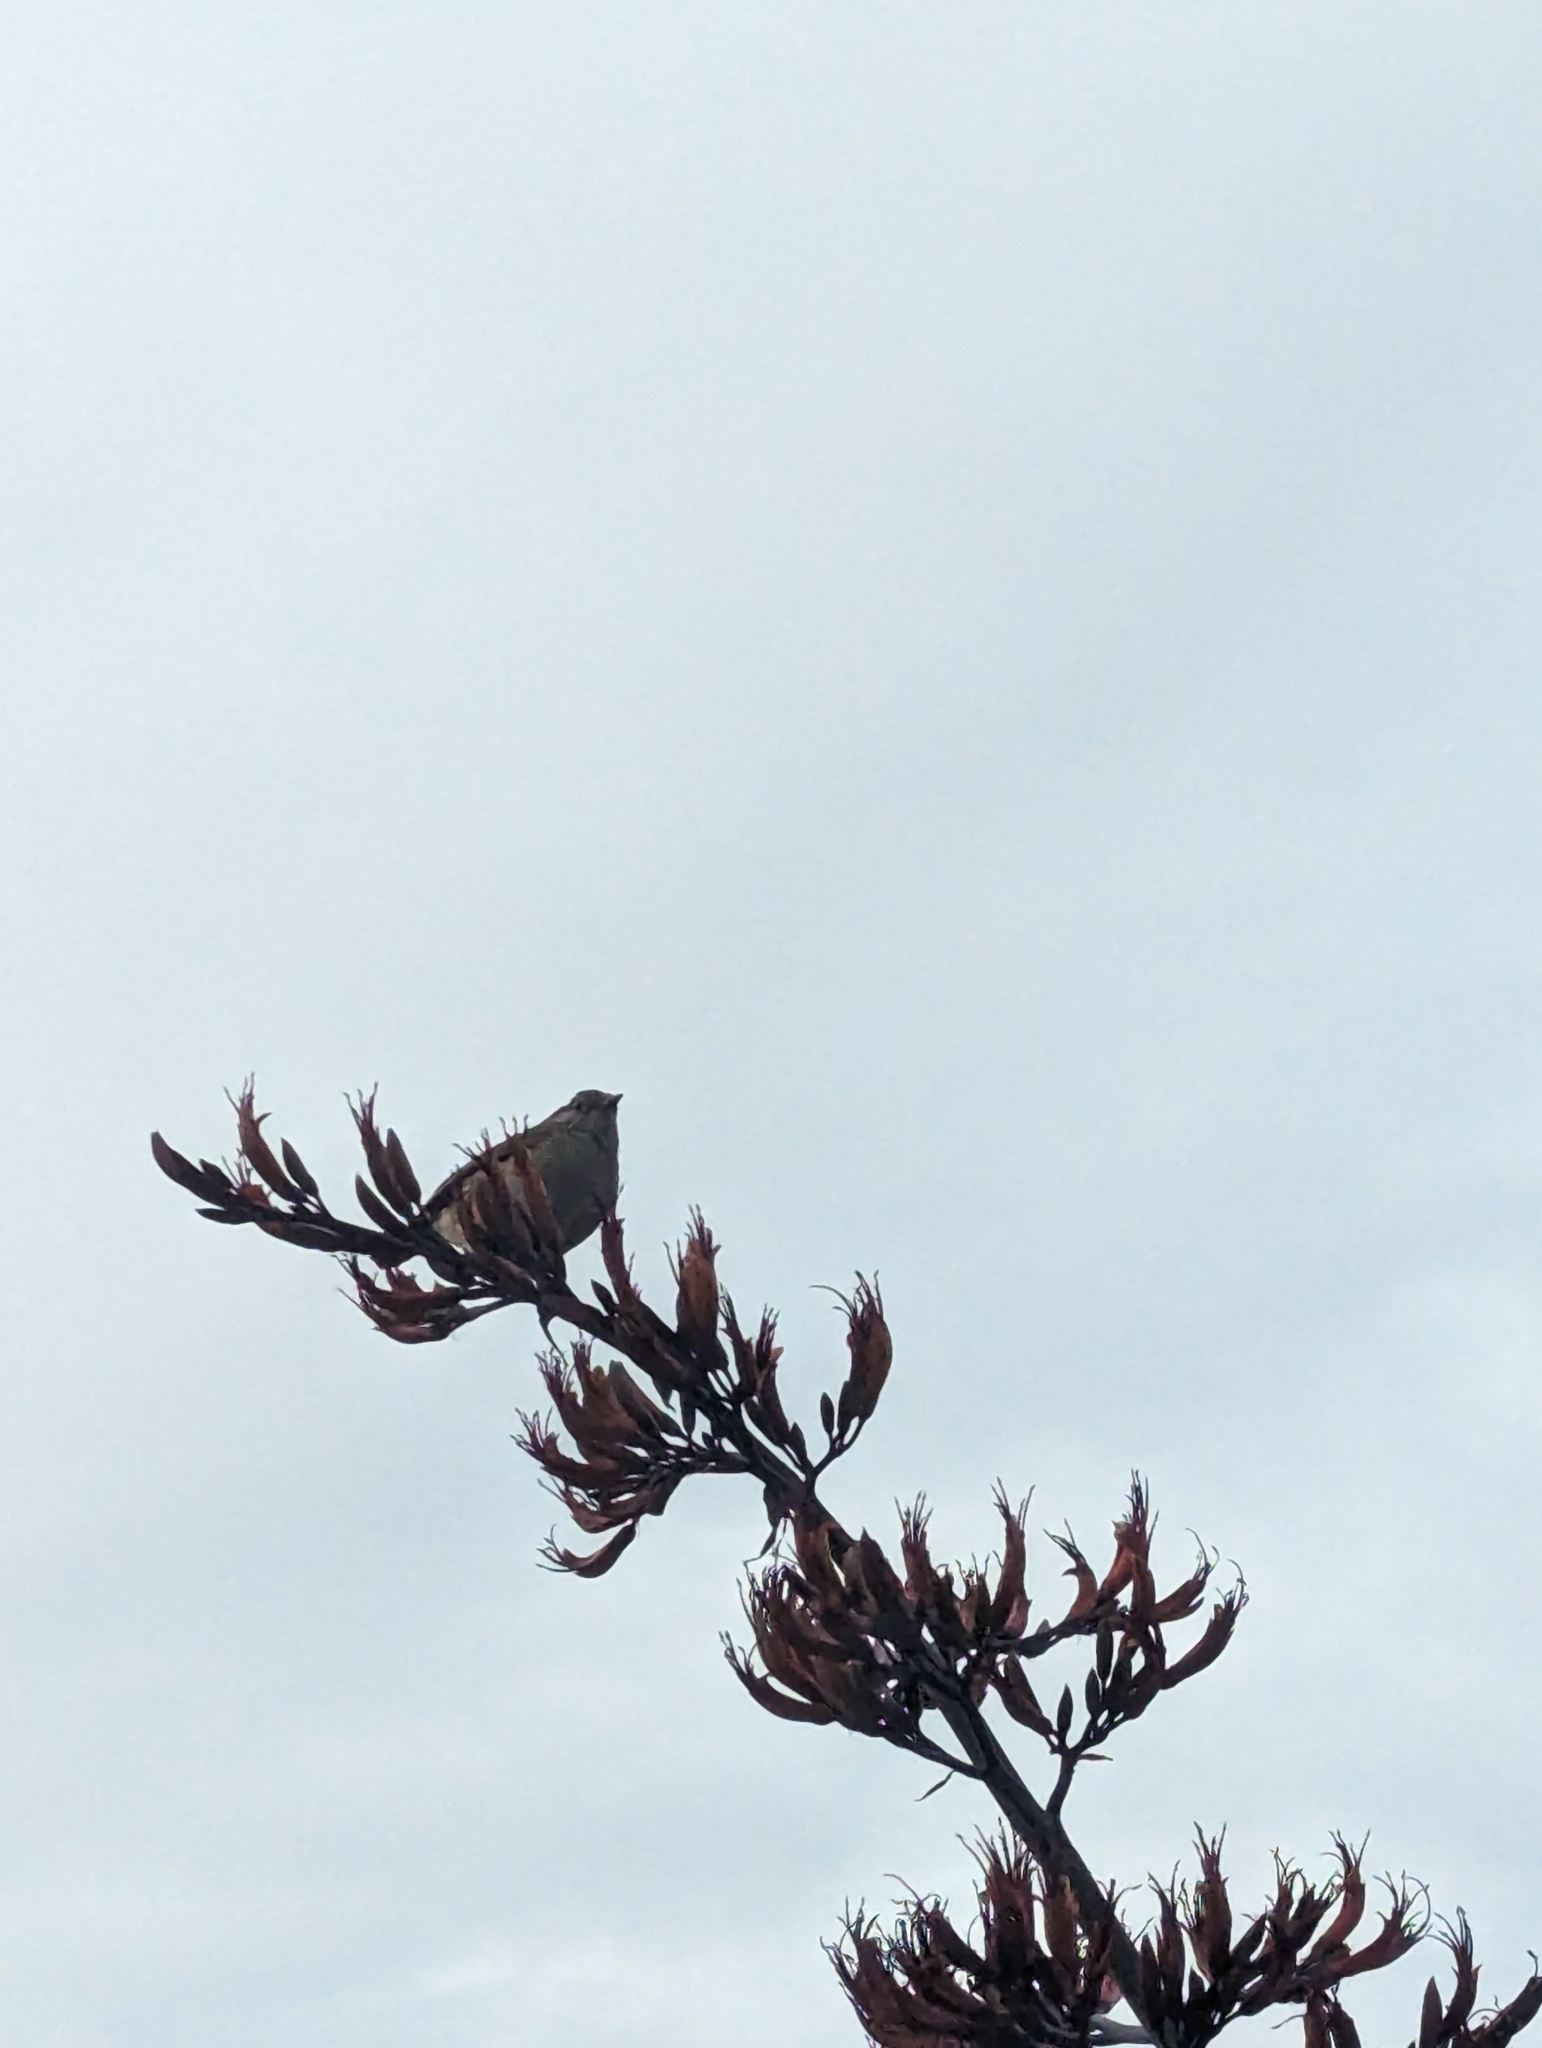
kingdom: Animalia
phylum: Chordata
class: Aves
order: Passeriformes
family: Prunellidae
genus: Prunella
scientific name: Prunella modularis
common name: Dunnock
